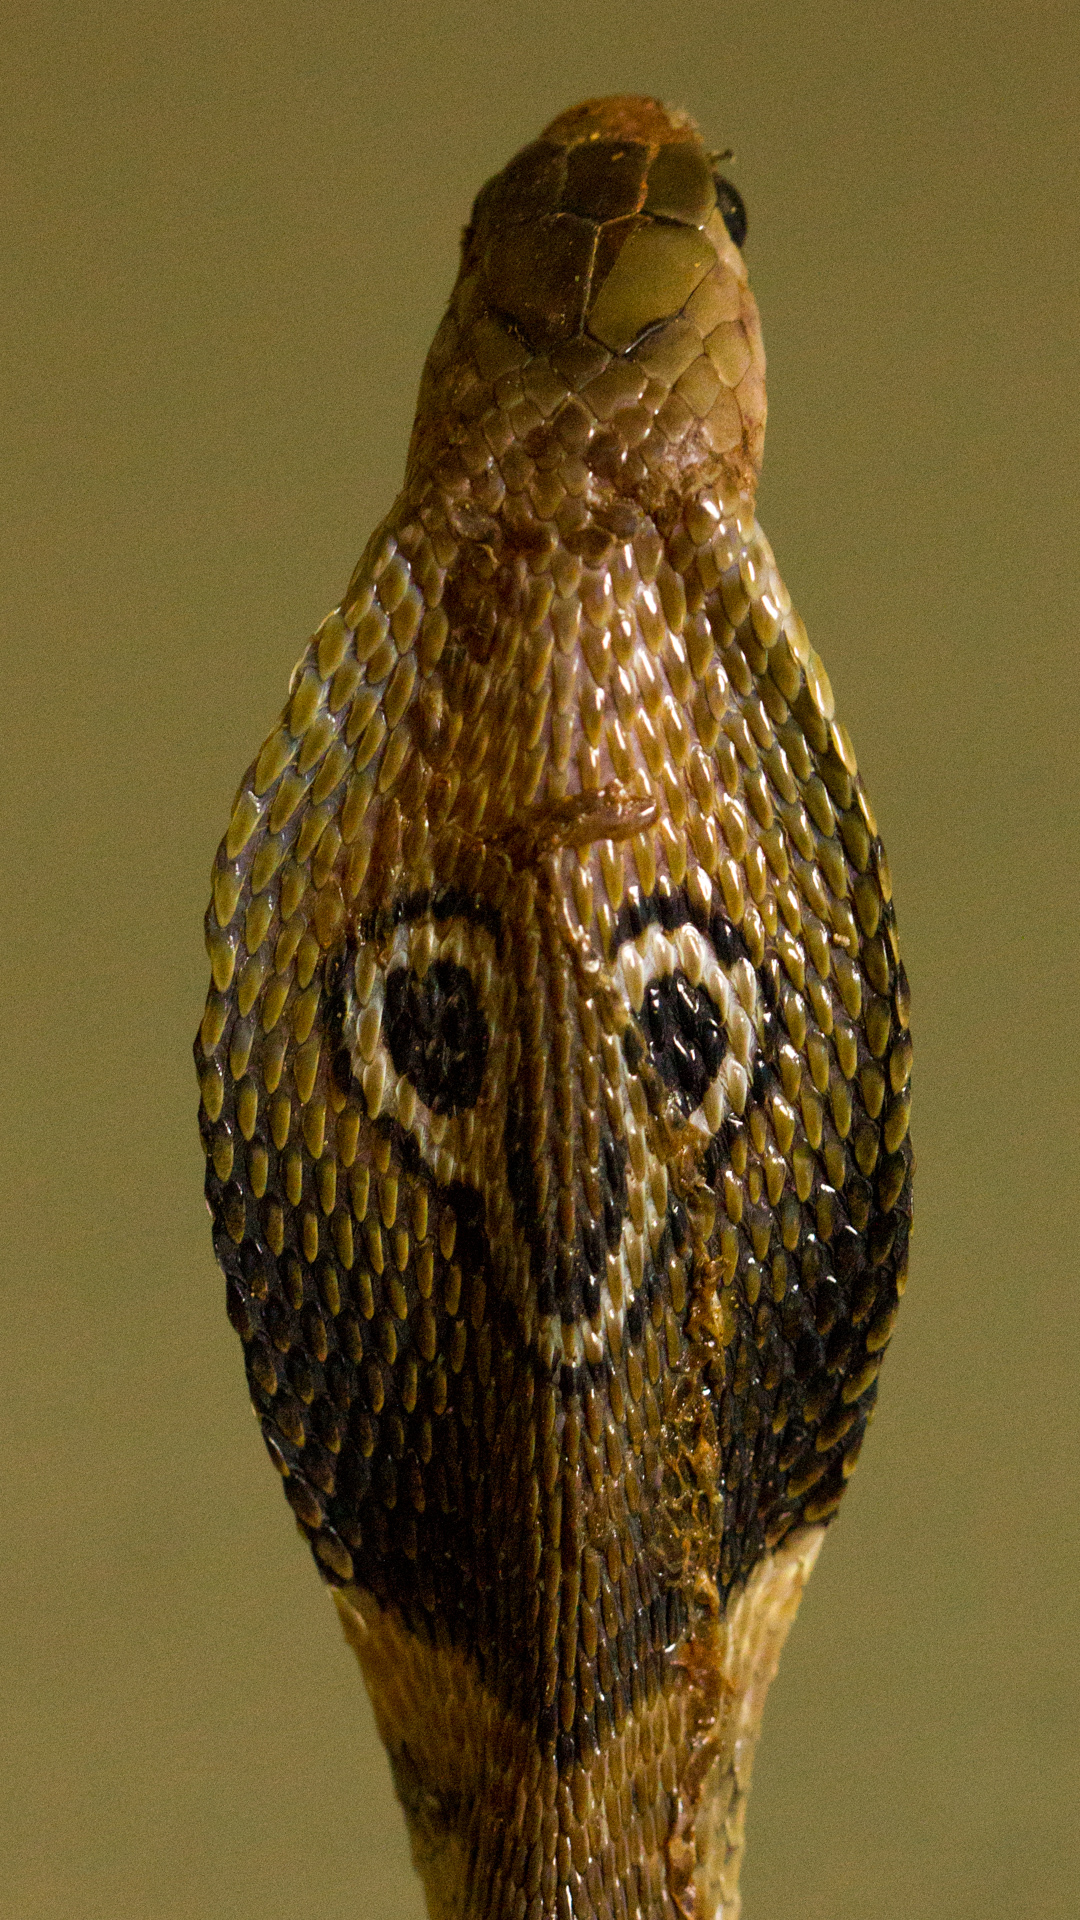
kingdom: Animalia
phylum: Chordata
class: Squamata
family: Elapidae
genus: Naja
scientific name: Naja naja
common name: Indian cobra
